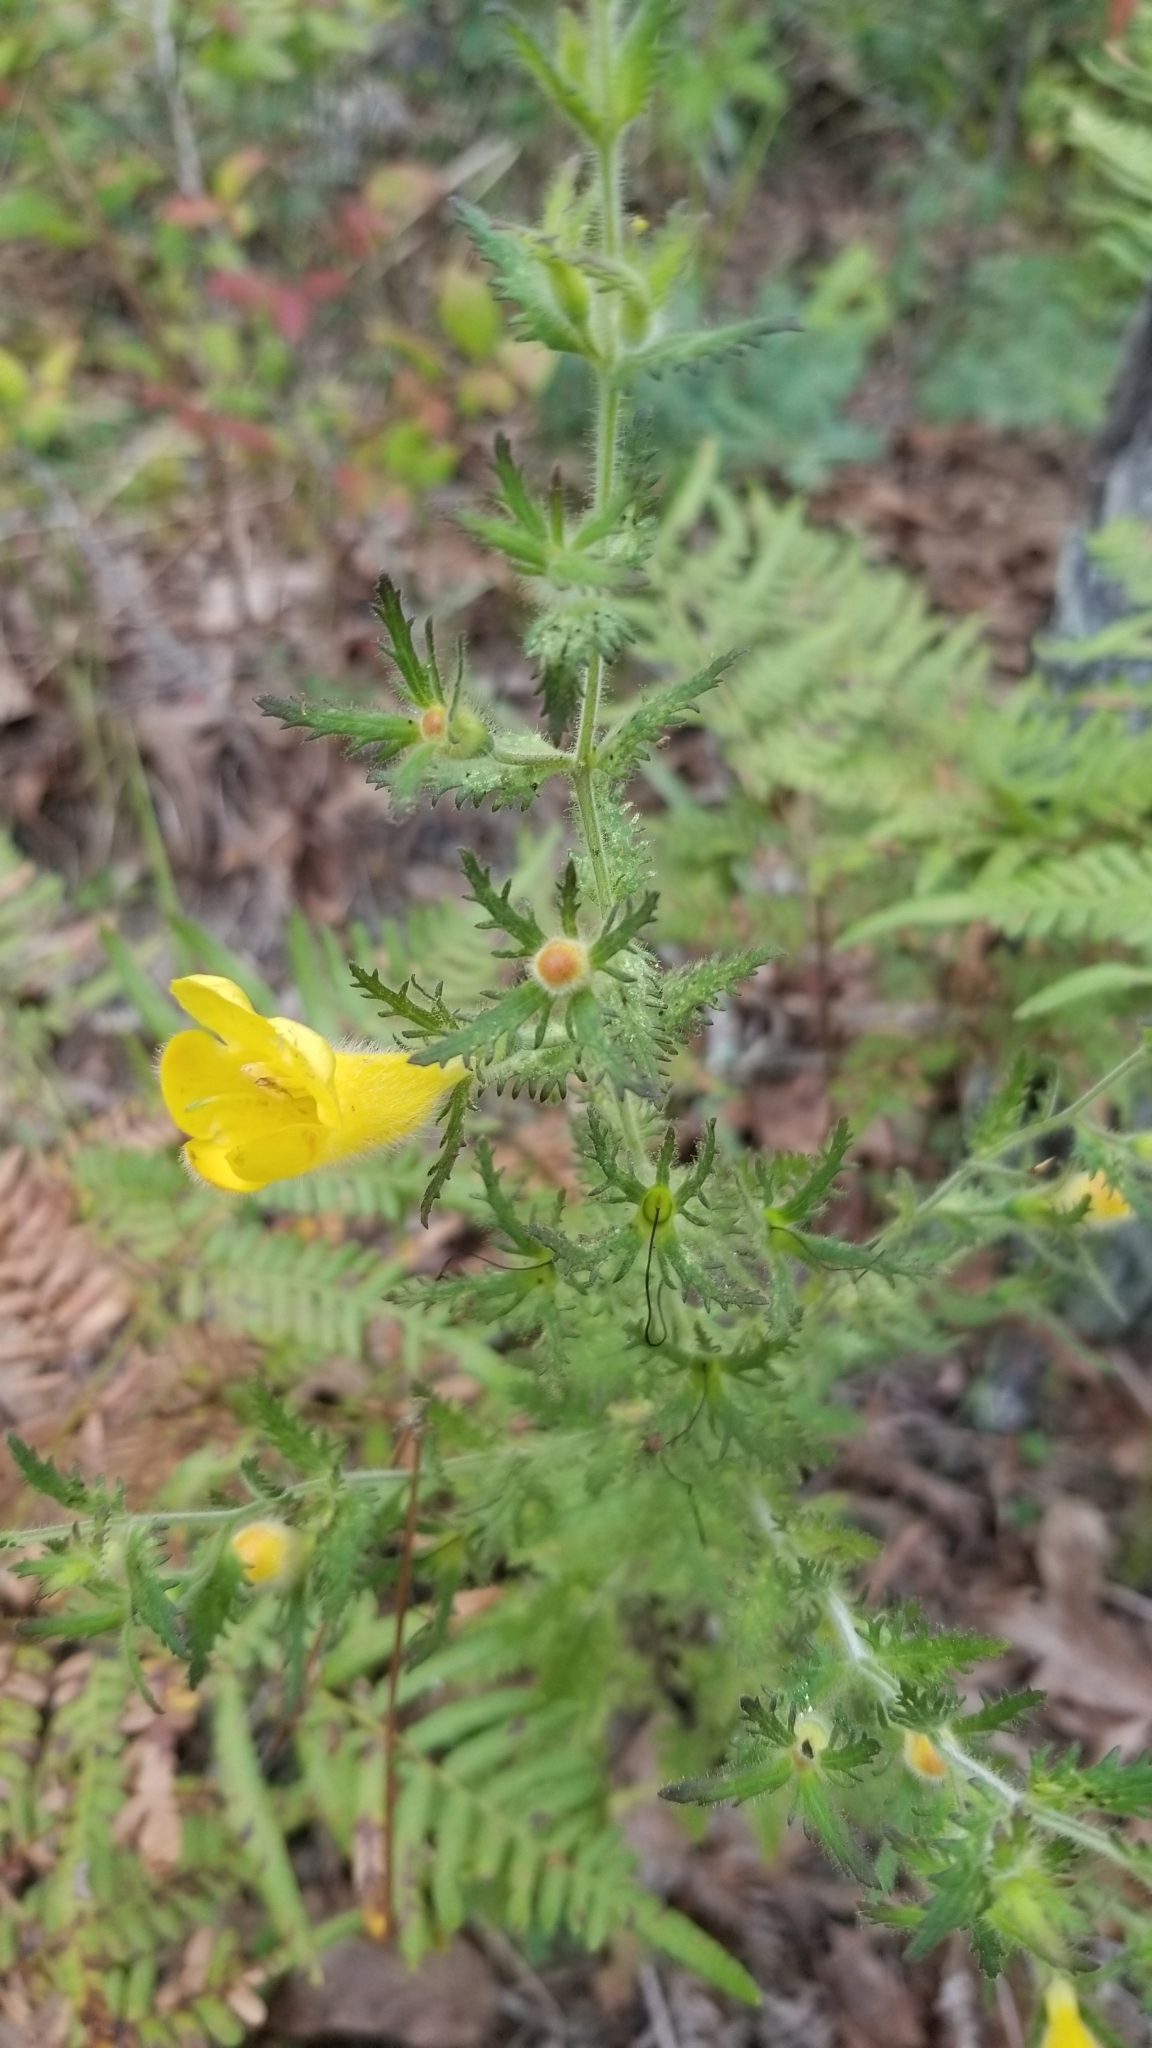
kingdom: Plantae
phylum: Tracheophyta
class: Magnoliopsida
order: Lamiales
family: Orobanchaceae
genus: Aureolaria
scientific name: Aureolaria pectinata
